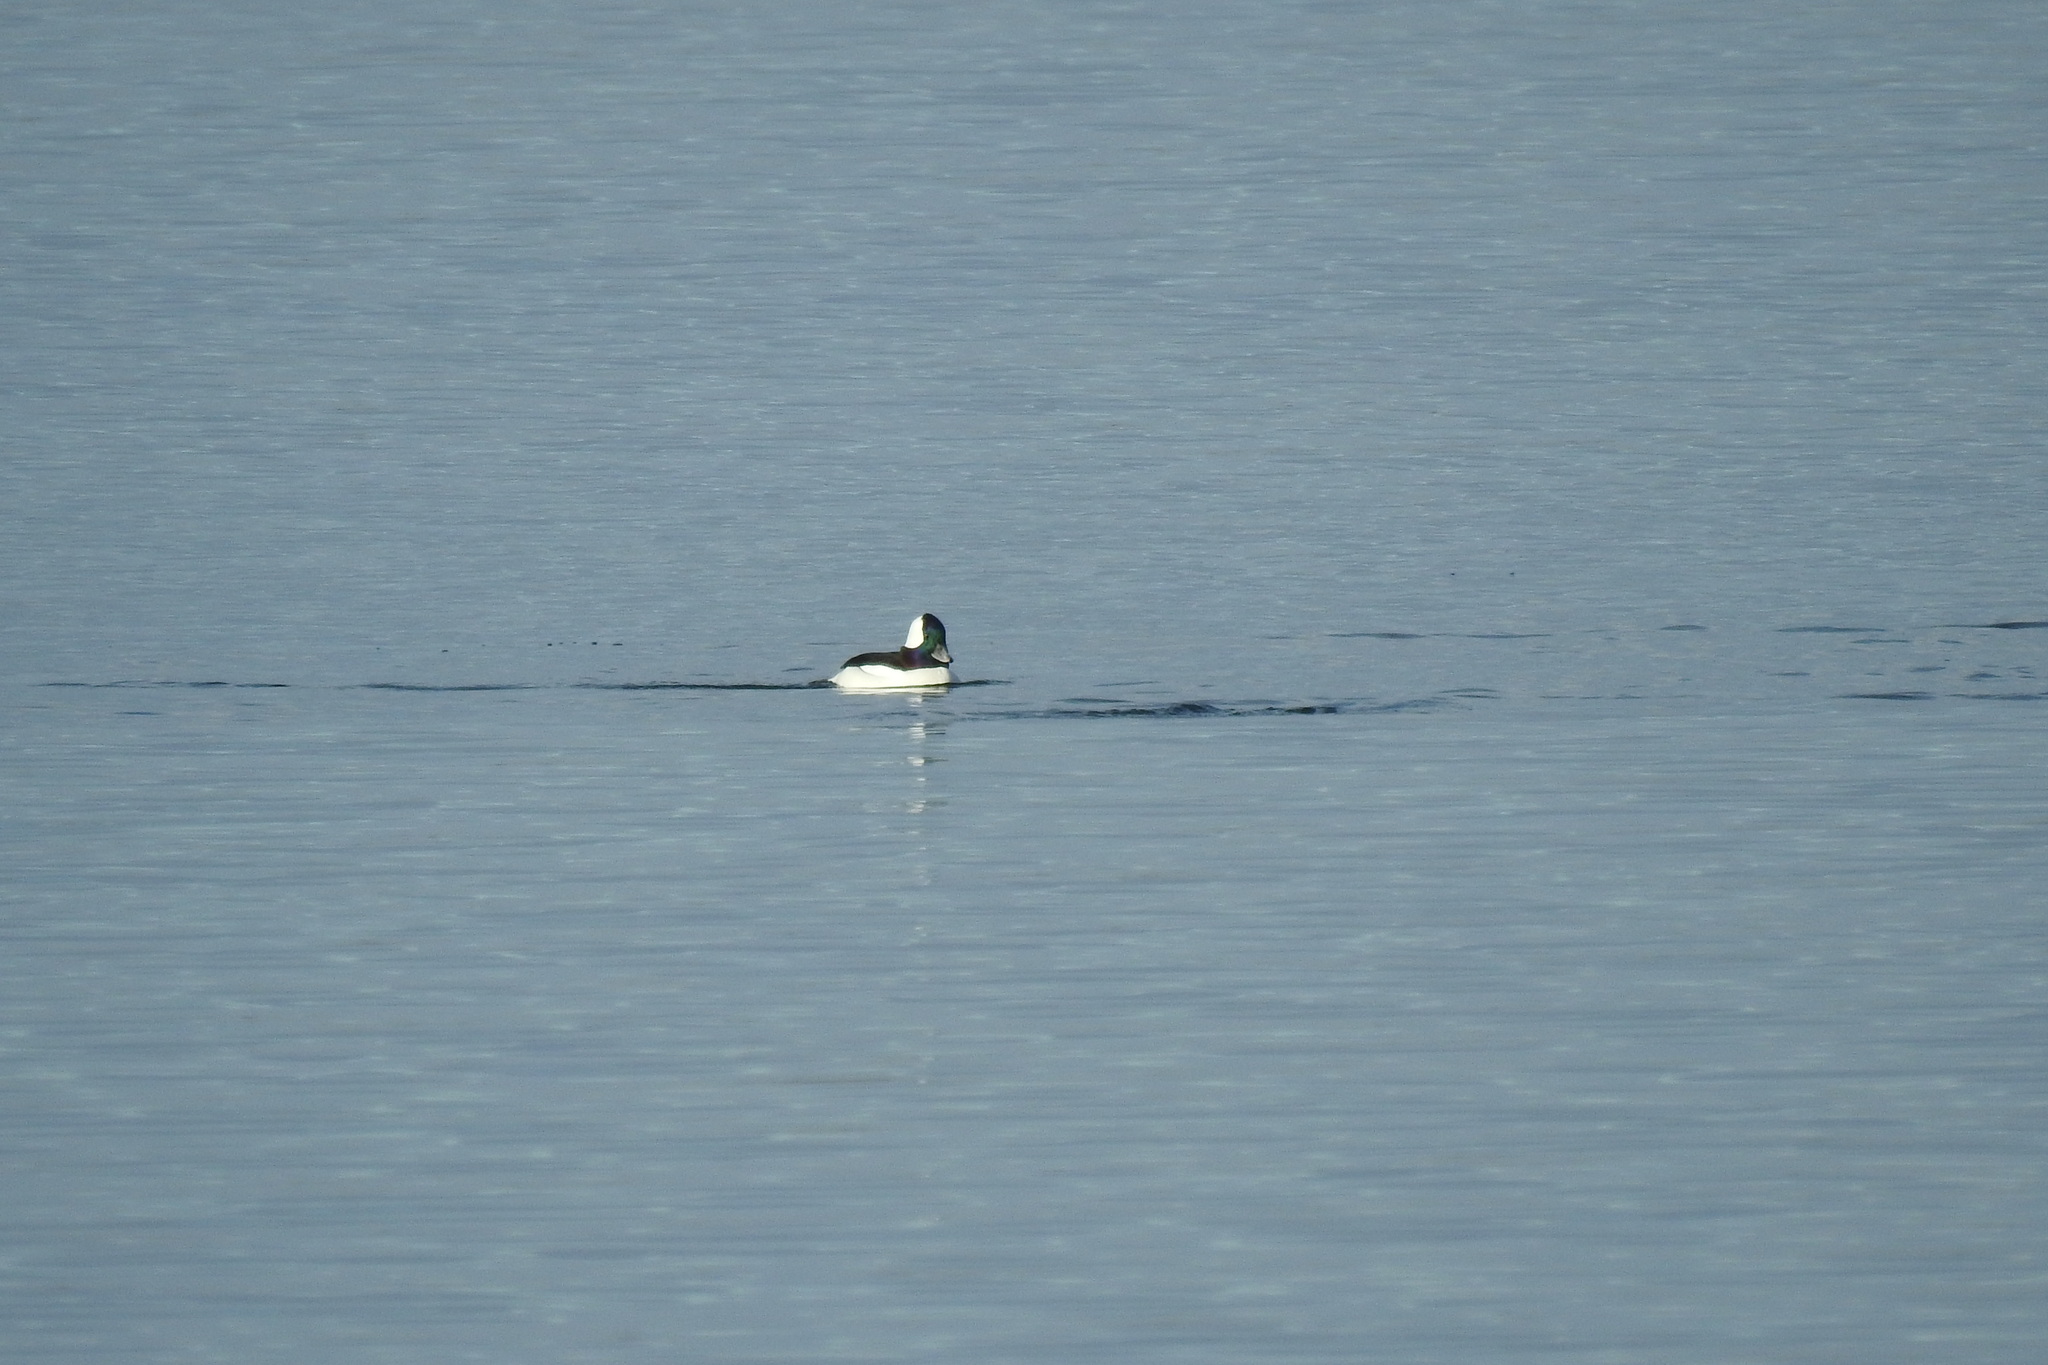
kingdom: Animalia
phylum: Chordata
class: Aves
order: Anseriformes
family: Anatidae
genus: Bucephala
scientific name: Bucephala albeola
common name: Bufflehead
